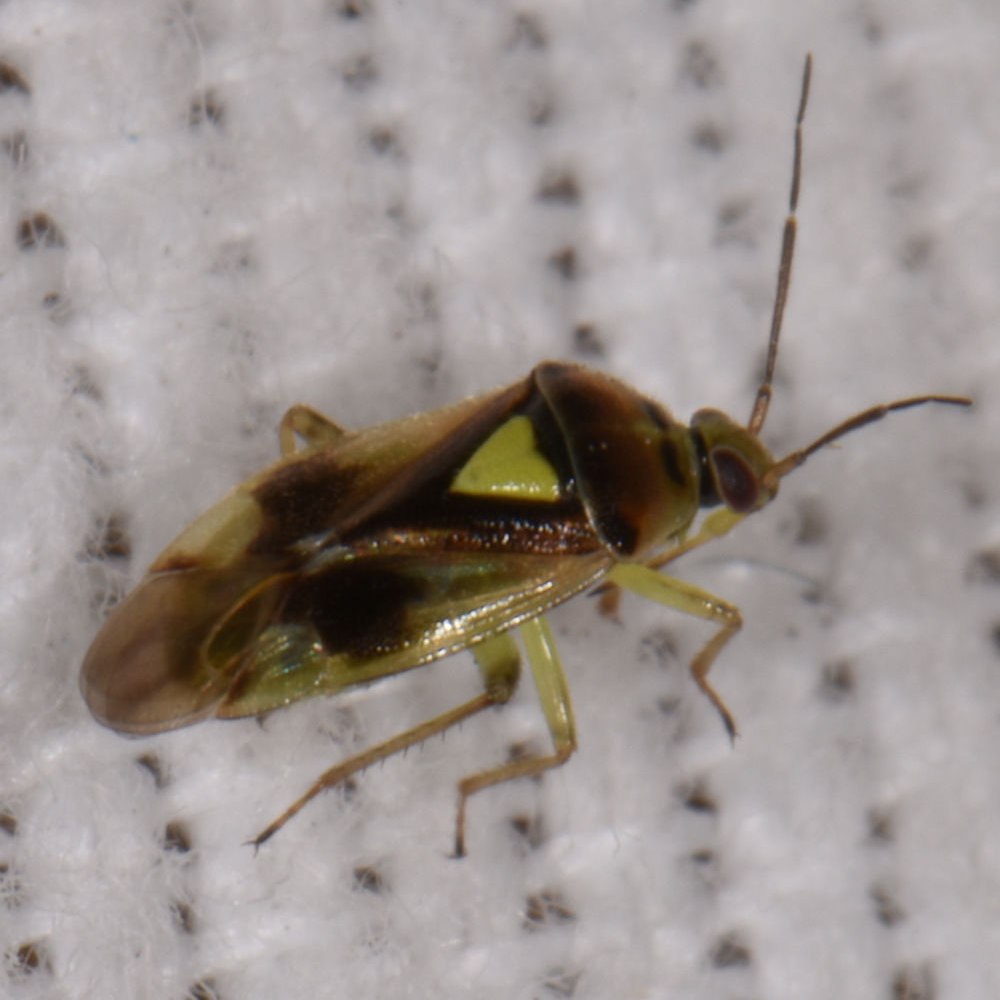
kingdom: Animalia
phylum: Arthropoda
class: Insecta
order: Hemiptera
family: Miridae
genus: Orthops
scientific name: Orthops scutellatus
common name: Plant bug
